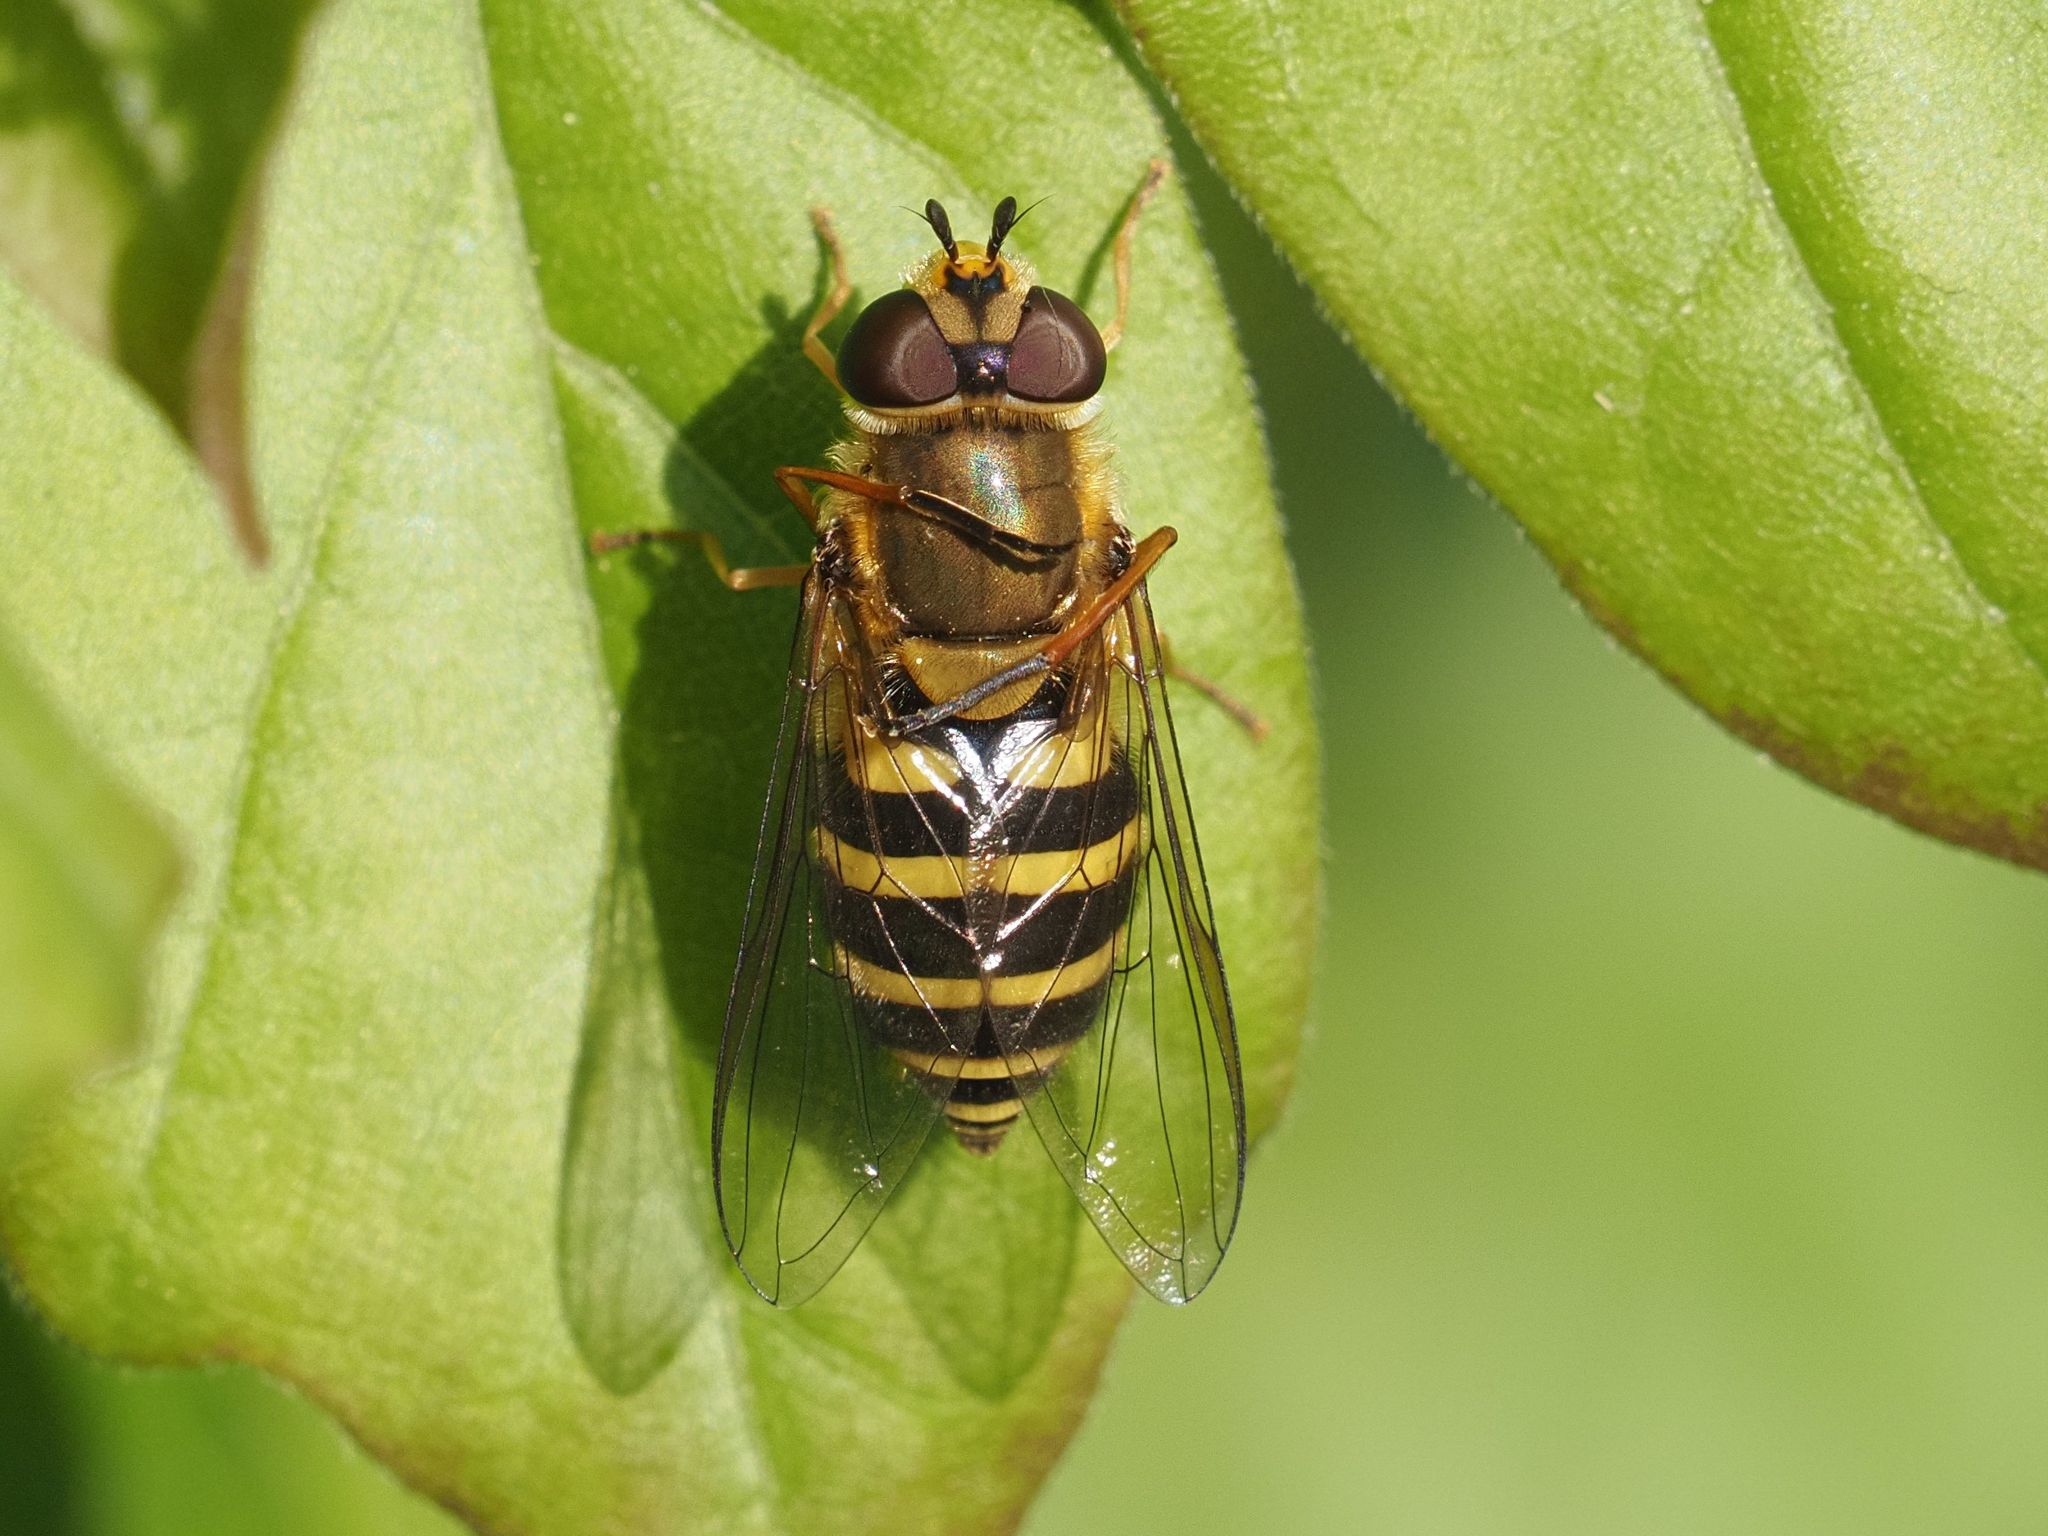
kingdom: Animalia
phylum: Arthropoda
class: Insecta
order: Diptera
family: Syrphidae
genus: Syrphus
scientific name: Syrphus
